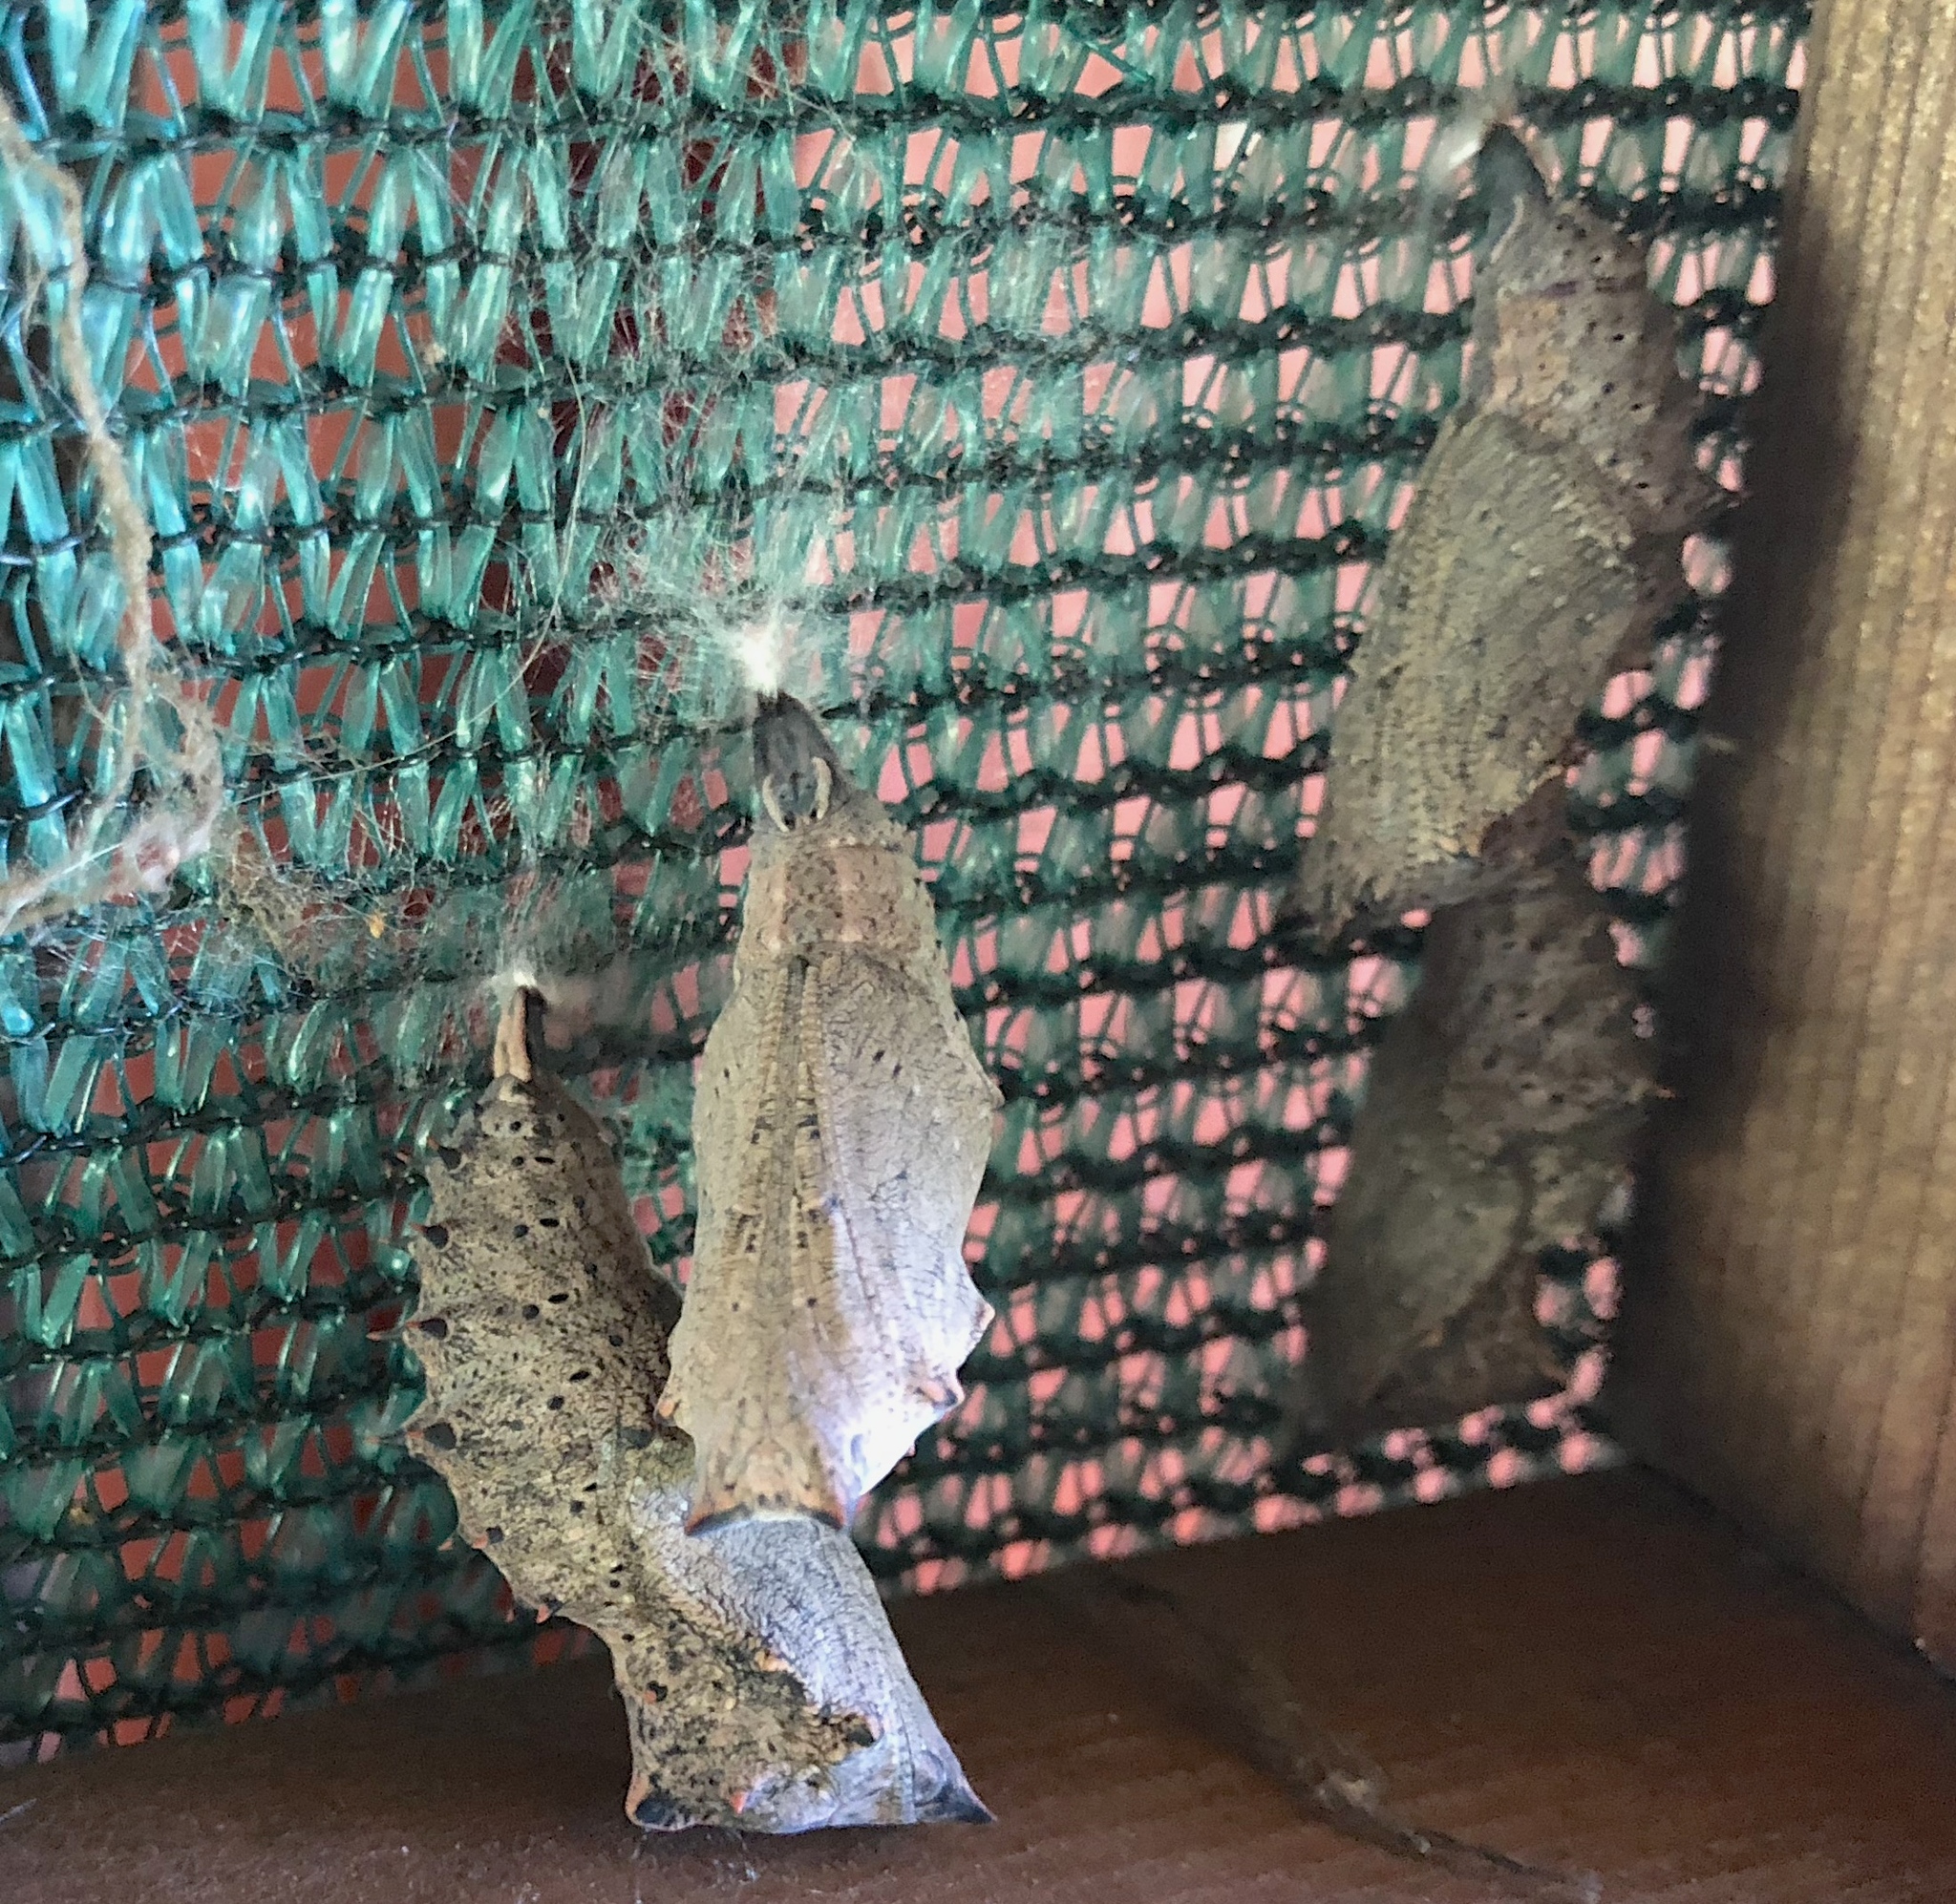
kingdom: Animalia
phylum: Arthropoda
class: Insecta
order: Lepidoptera
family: Nymphalidae
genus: Nymphalis
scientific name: Nymphalis antiopa
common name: Camberwell beauty
